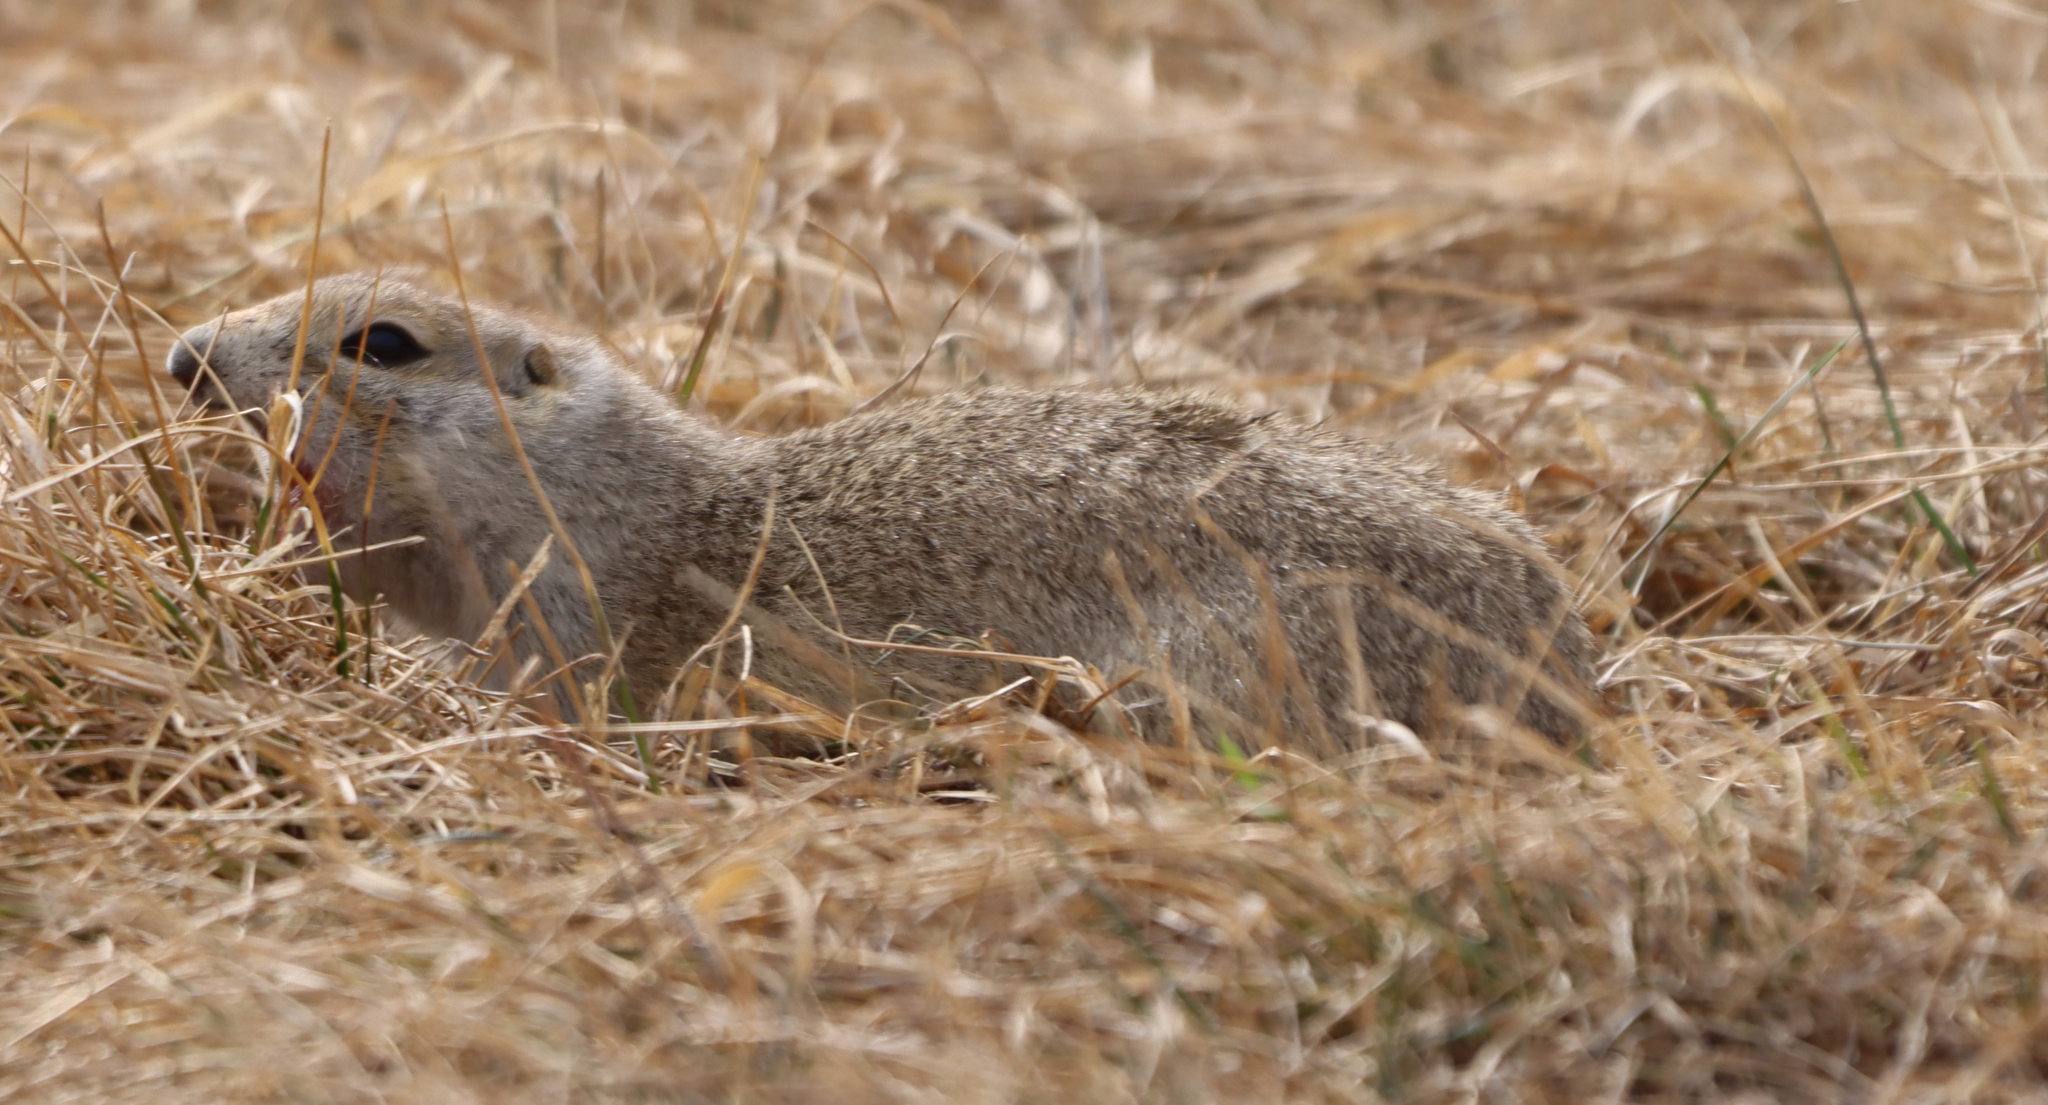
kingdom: Animalia
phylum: Chordata
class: Mammalia
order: Rodentia
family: Sciuridae
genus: Urocitellus
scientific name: Urocitellus richardsonii
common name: Richardson's ground squirrel
